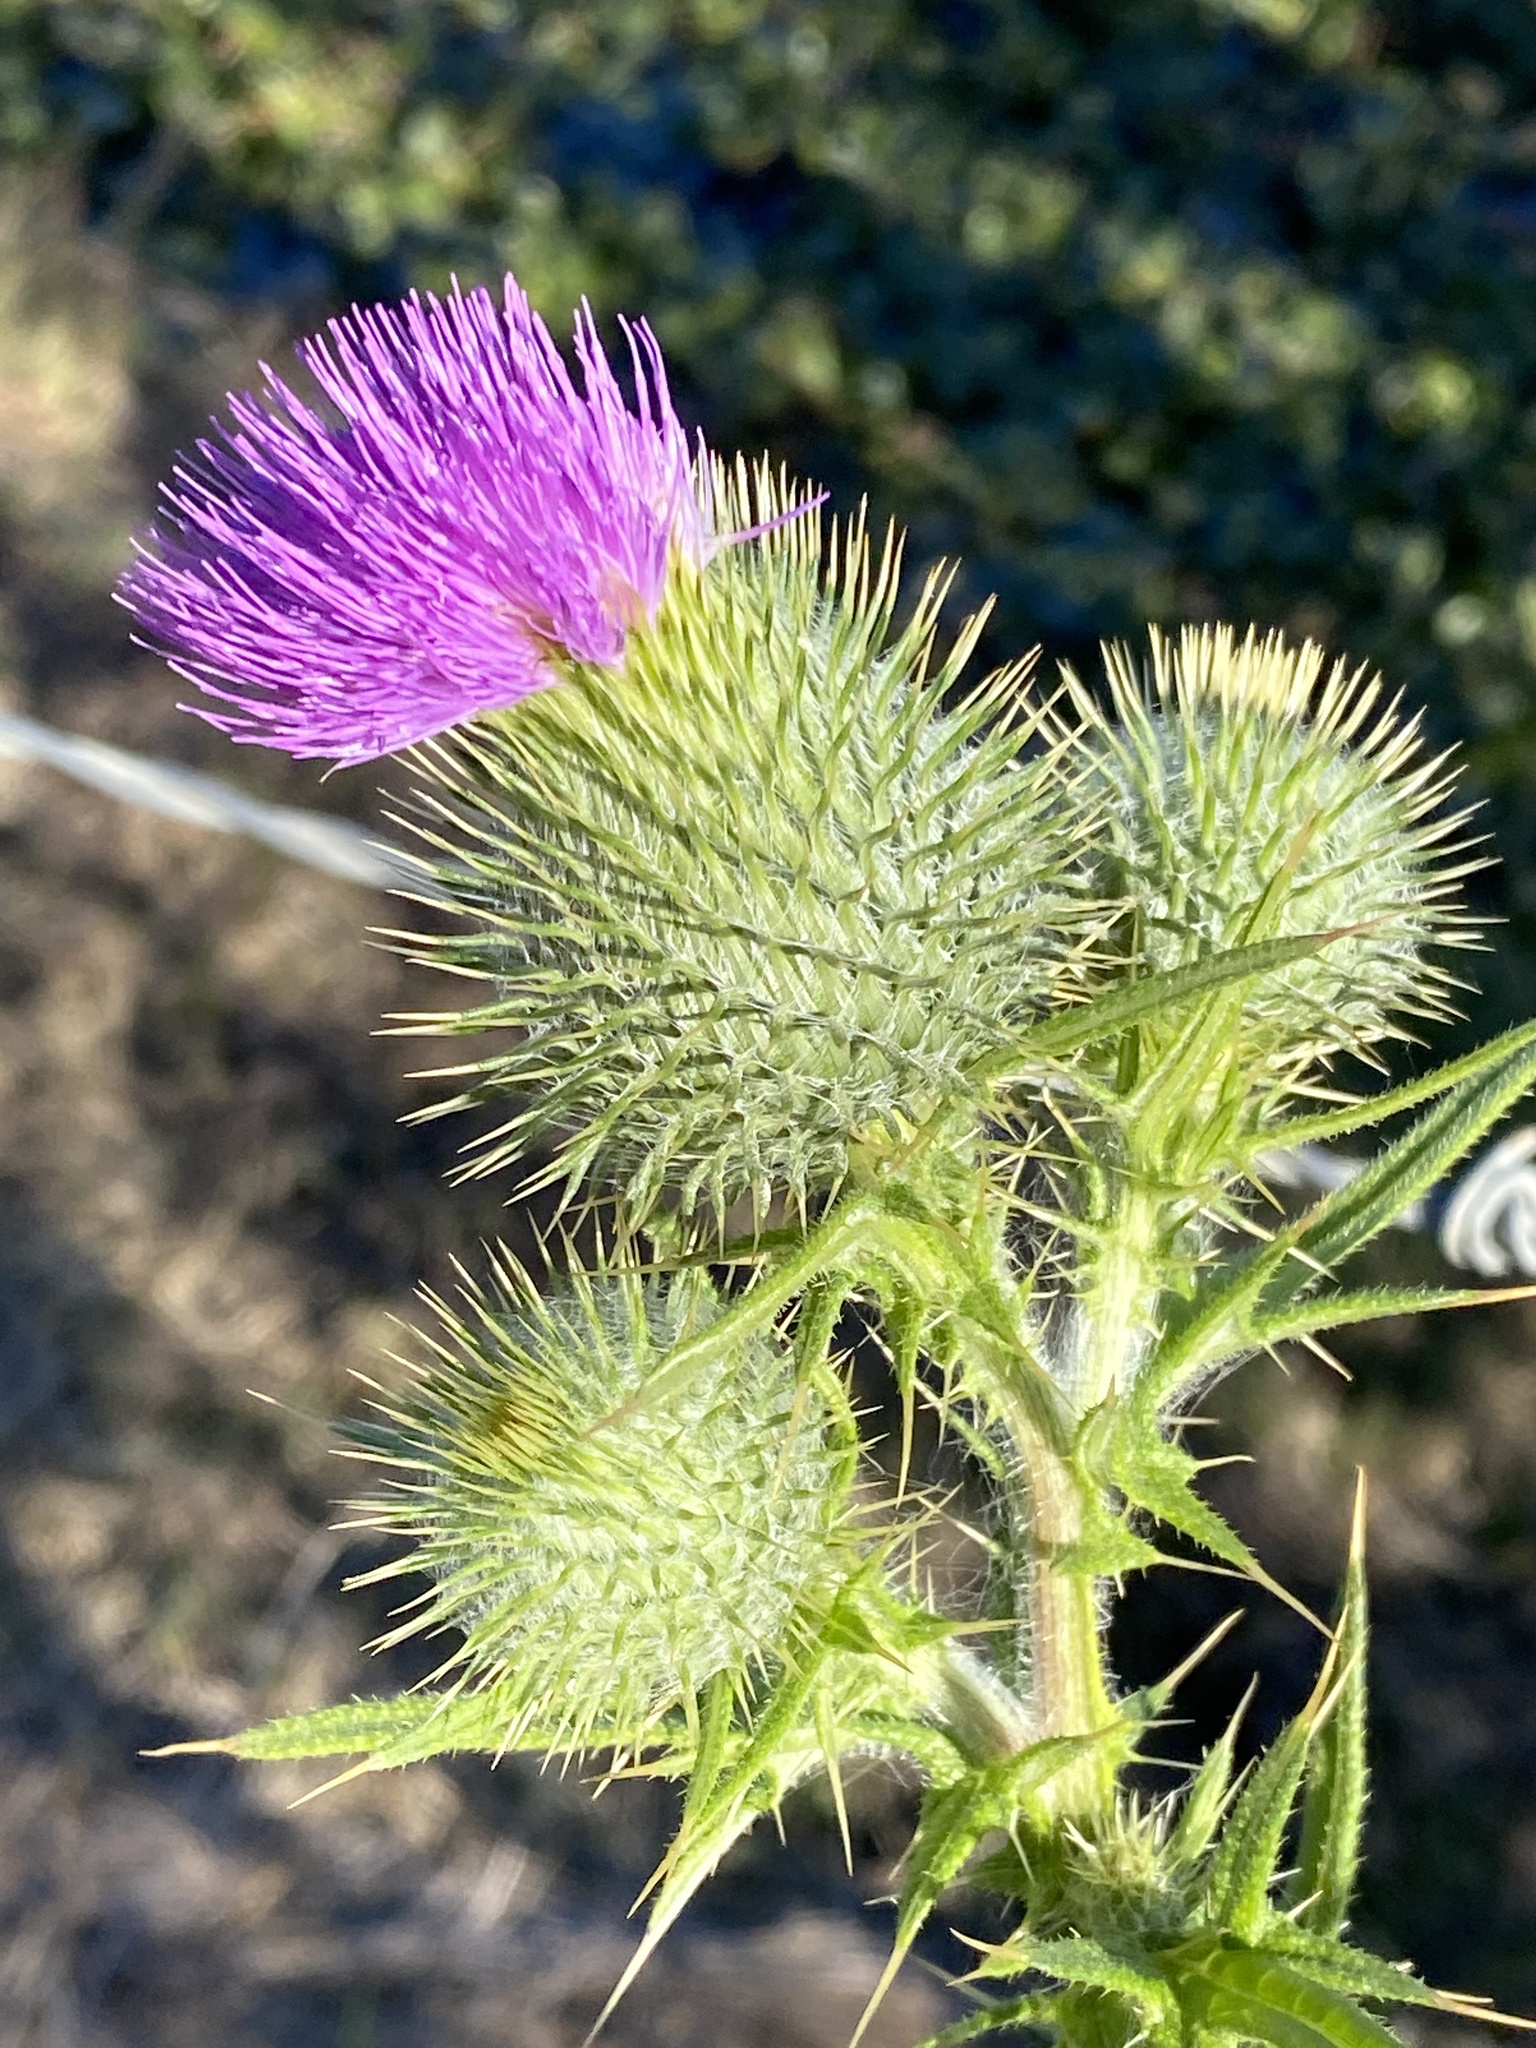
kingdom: Plantae
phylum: Tracheophyta
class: Magnoliopsida
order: Asterales
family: Asteraceae
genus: Cirsium
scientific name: Cirsium vulgare
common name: Bull thistle
